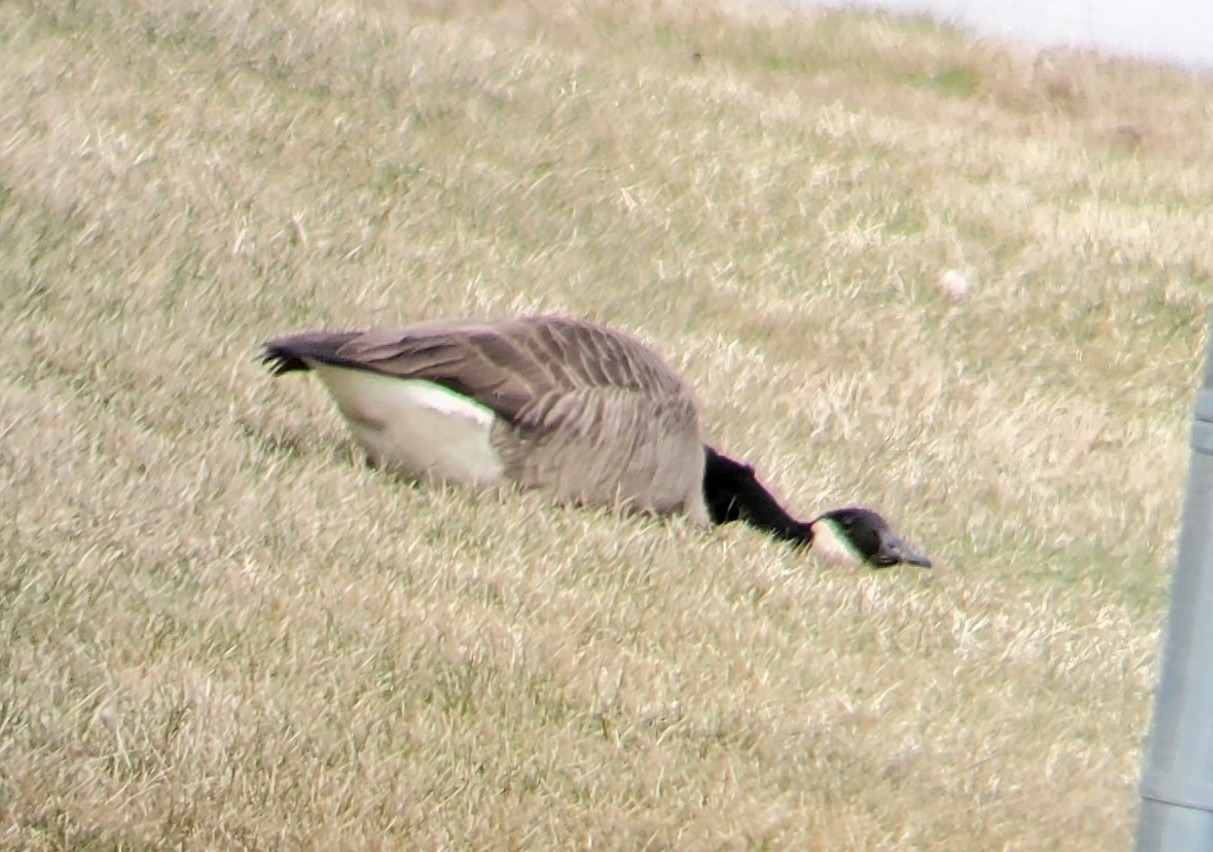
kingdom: Animalia
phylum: Chordata
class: Aves
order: Anseriformes
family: Anatidae
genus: Branta
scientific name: Branta canadensis
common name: Canada goose
